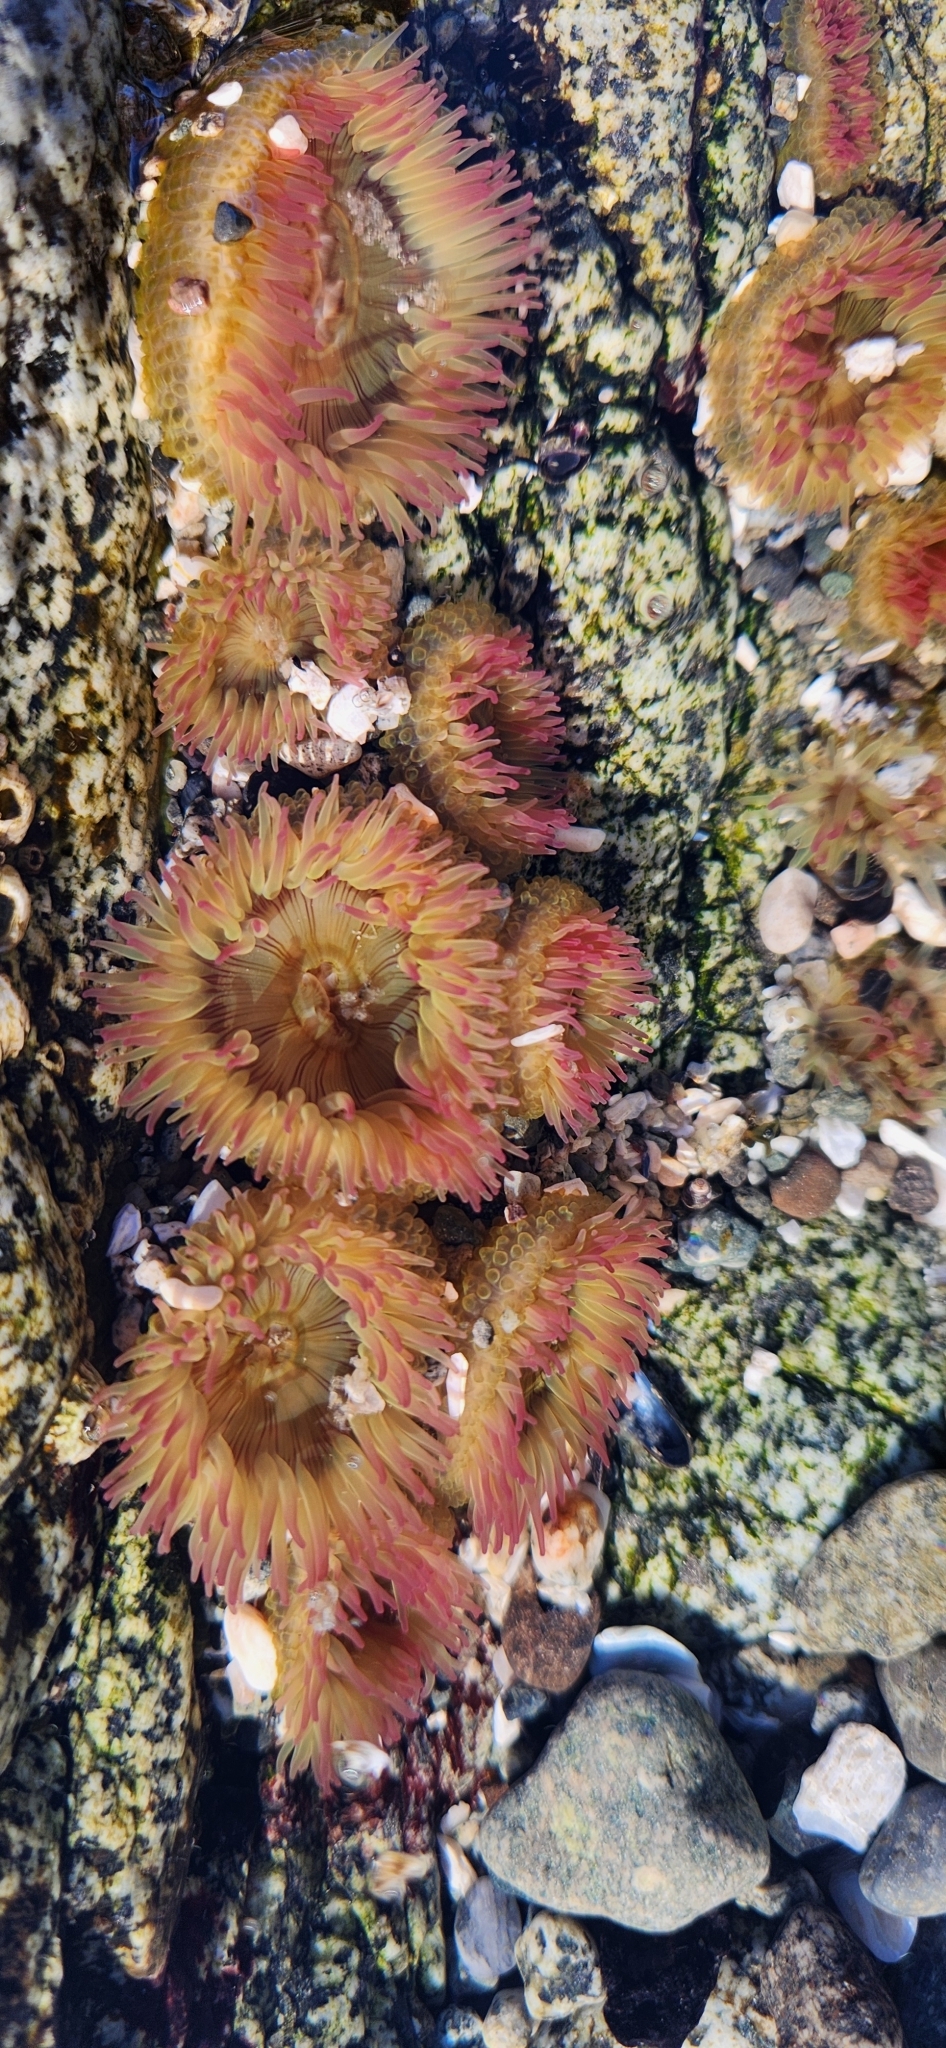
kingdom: Animalia
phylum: Cnidaria
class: Anthozoa
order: Actiniaria
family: Actiniidae
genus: Anthopleura
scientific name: Anthopleura elegantissima
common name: Clonal anemone
